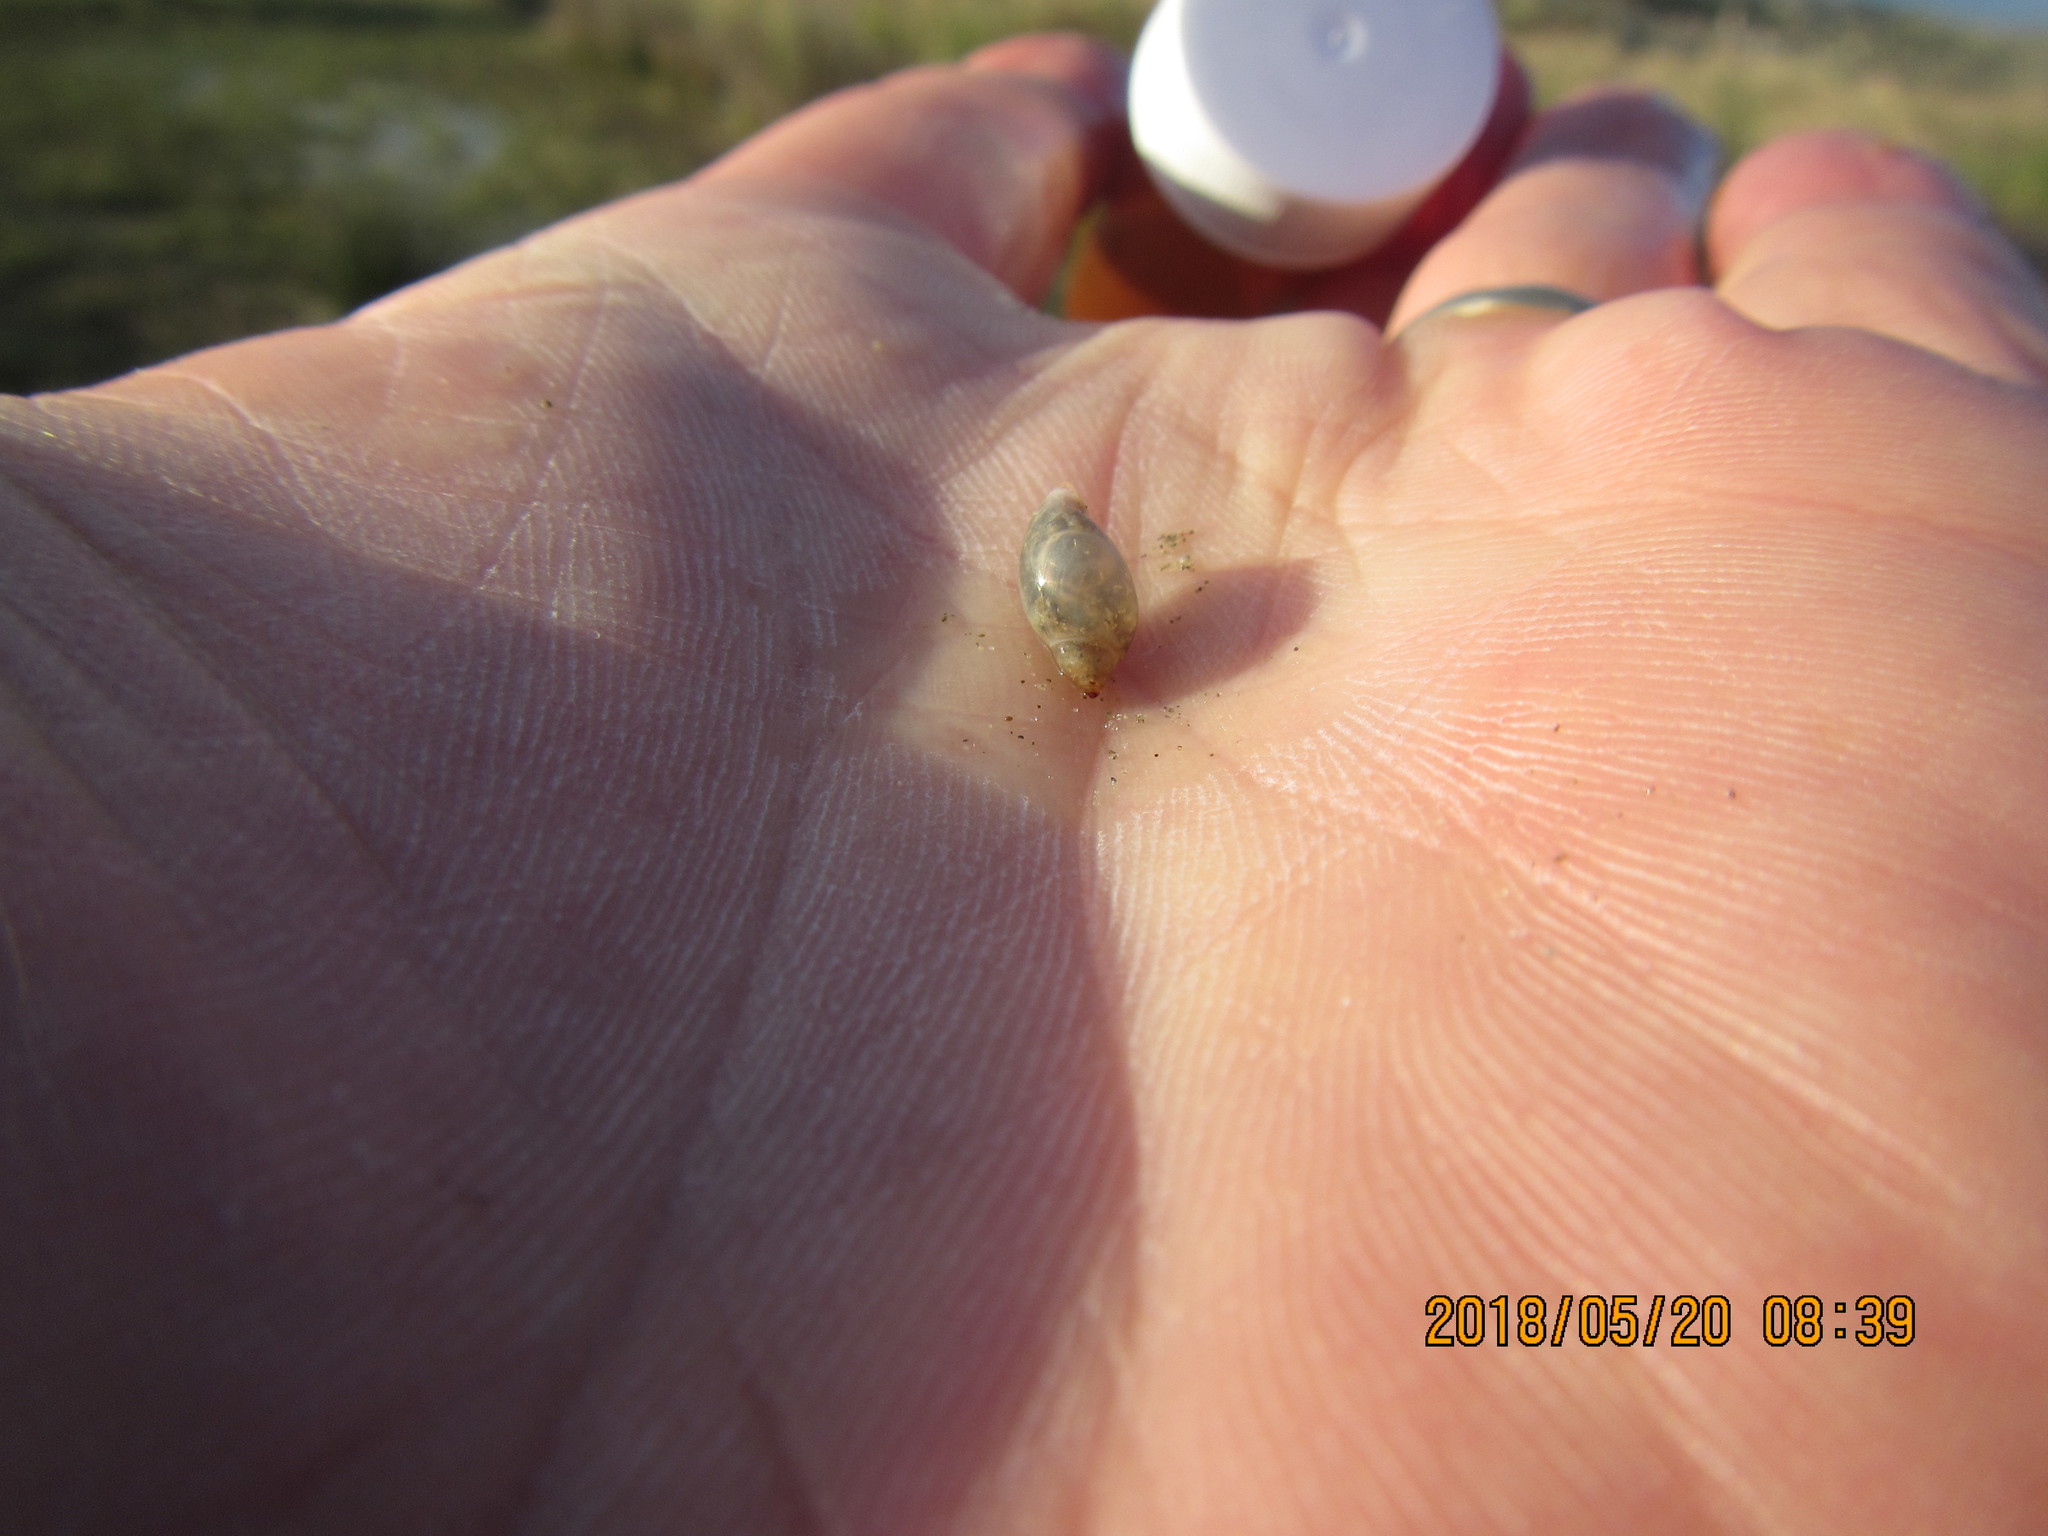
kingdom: Animalia
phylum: Mollusca
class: Gastropoda
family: Physidae
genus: Physella
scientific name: Physella acuta
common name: European physa
